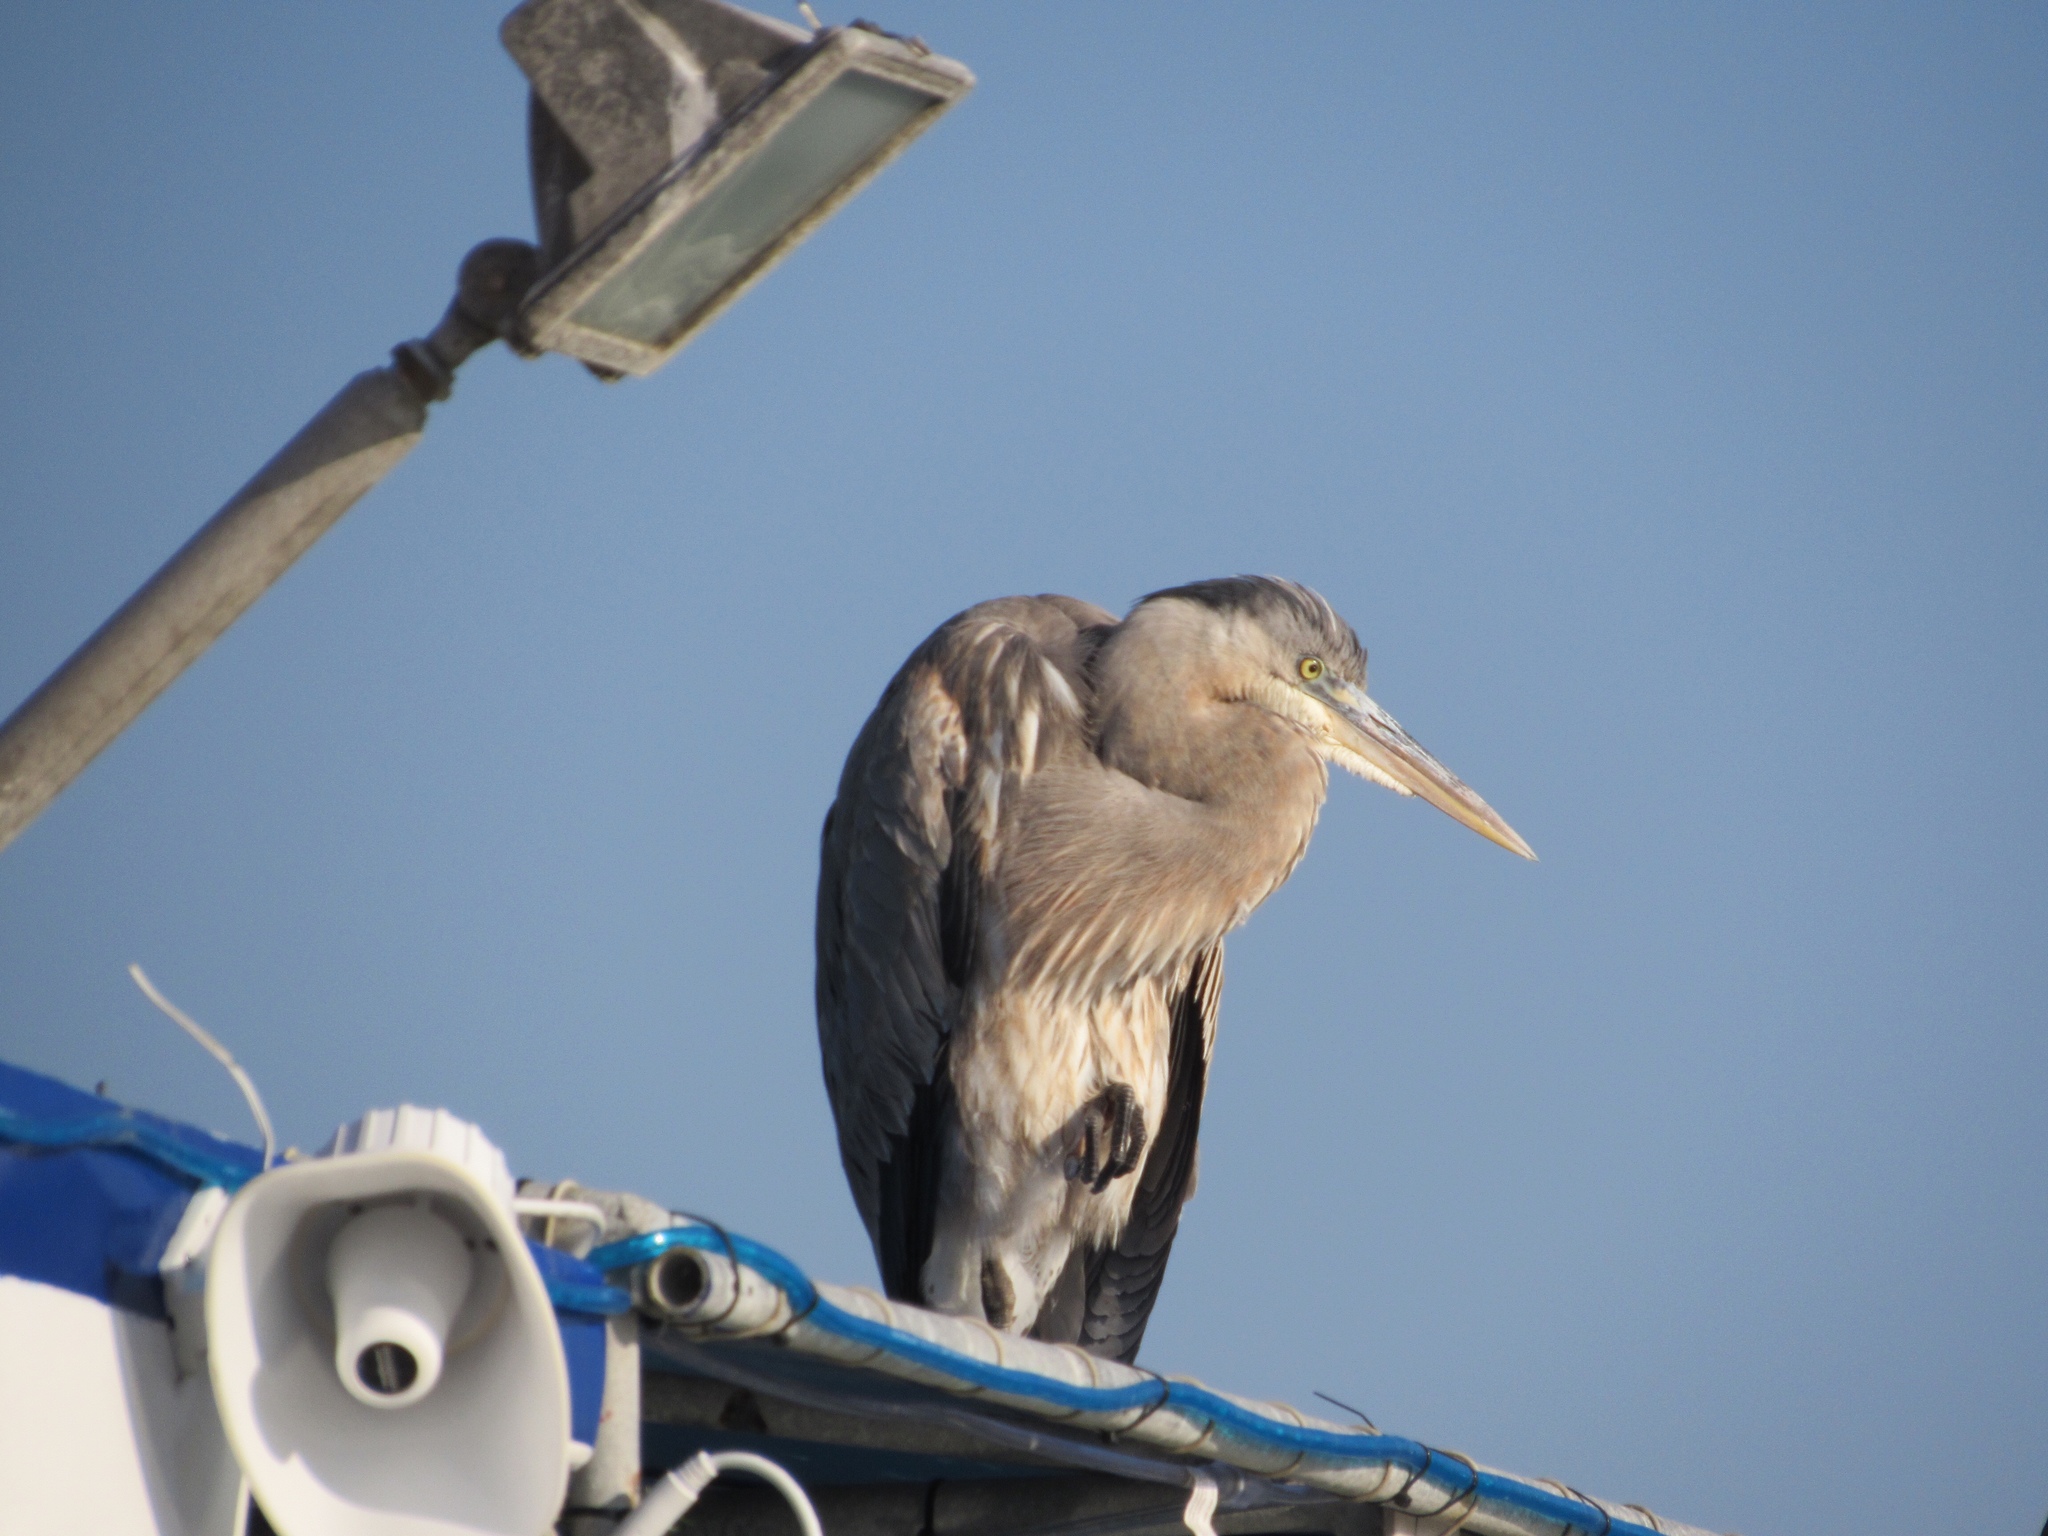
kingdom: Animalia
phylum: Chordata
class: Aves
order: Pelecaniformes
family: Ardeidae
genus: Ardea
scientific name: Ardea herodias
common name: Great blue heron
